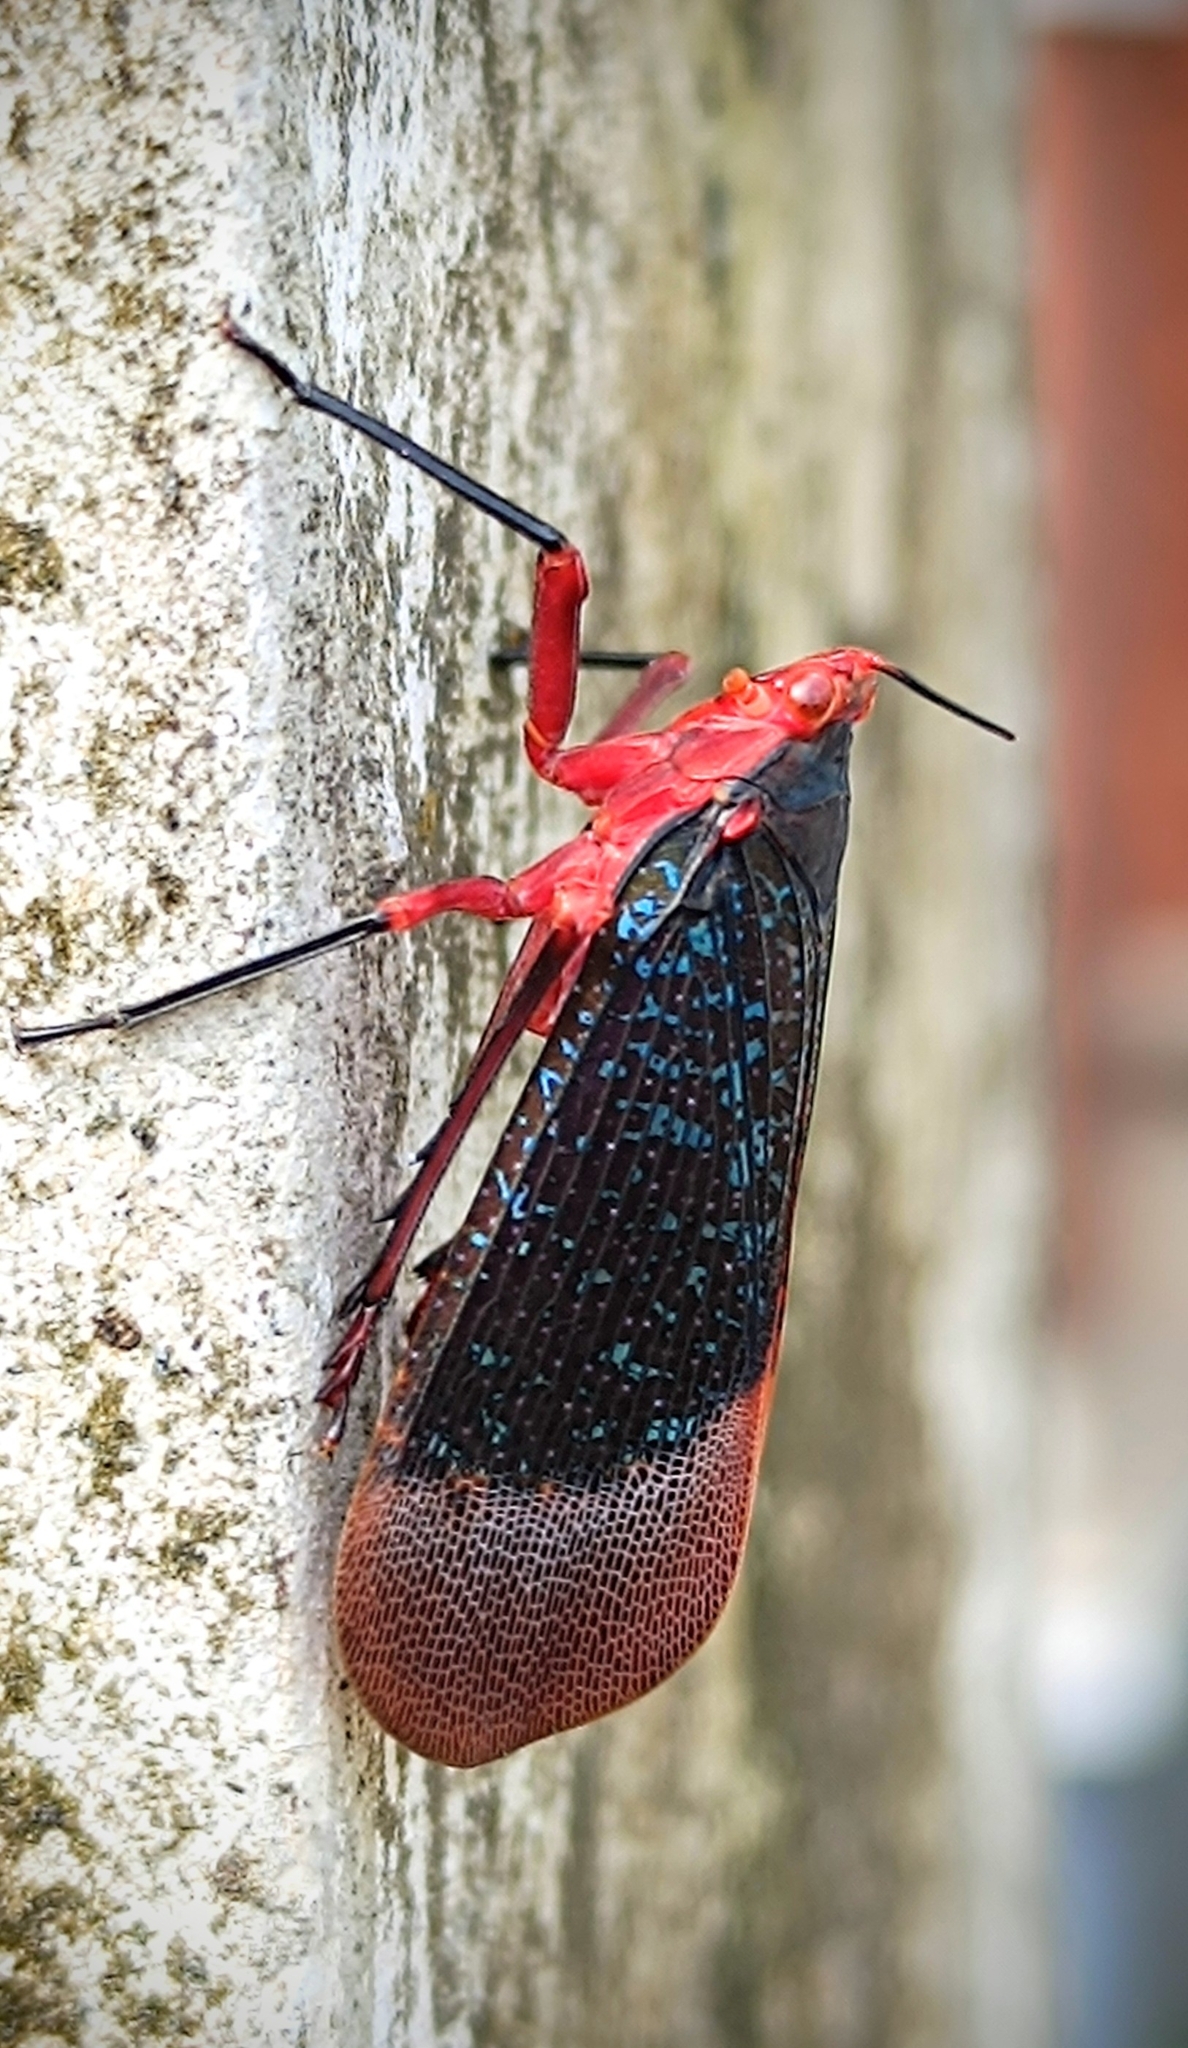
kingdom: Animalia
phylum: Arthropoda
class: Insecta
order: Hemiptera
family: Fulgoridae
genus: Kalidasa
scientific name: Kalidasa lanata
